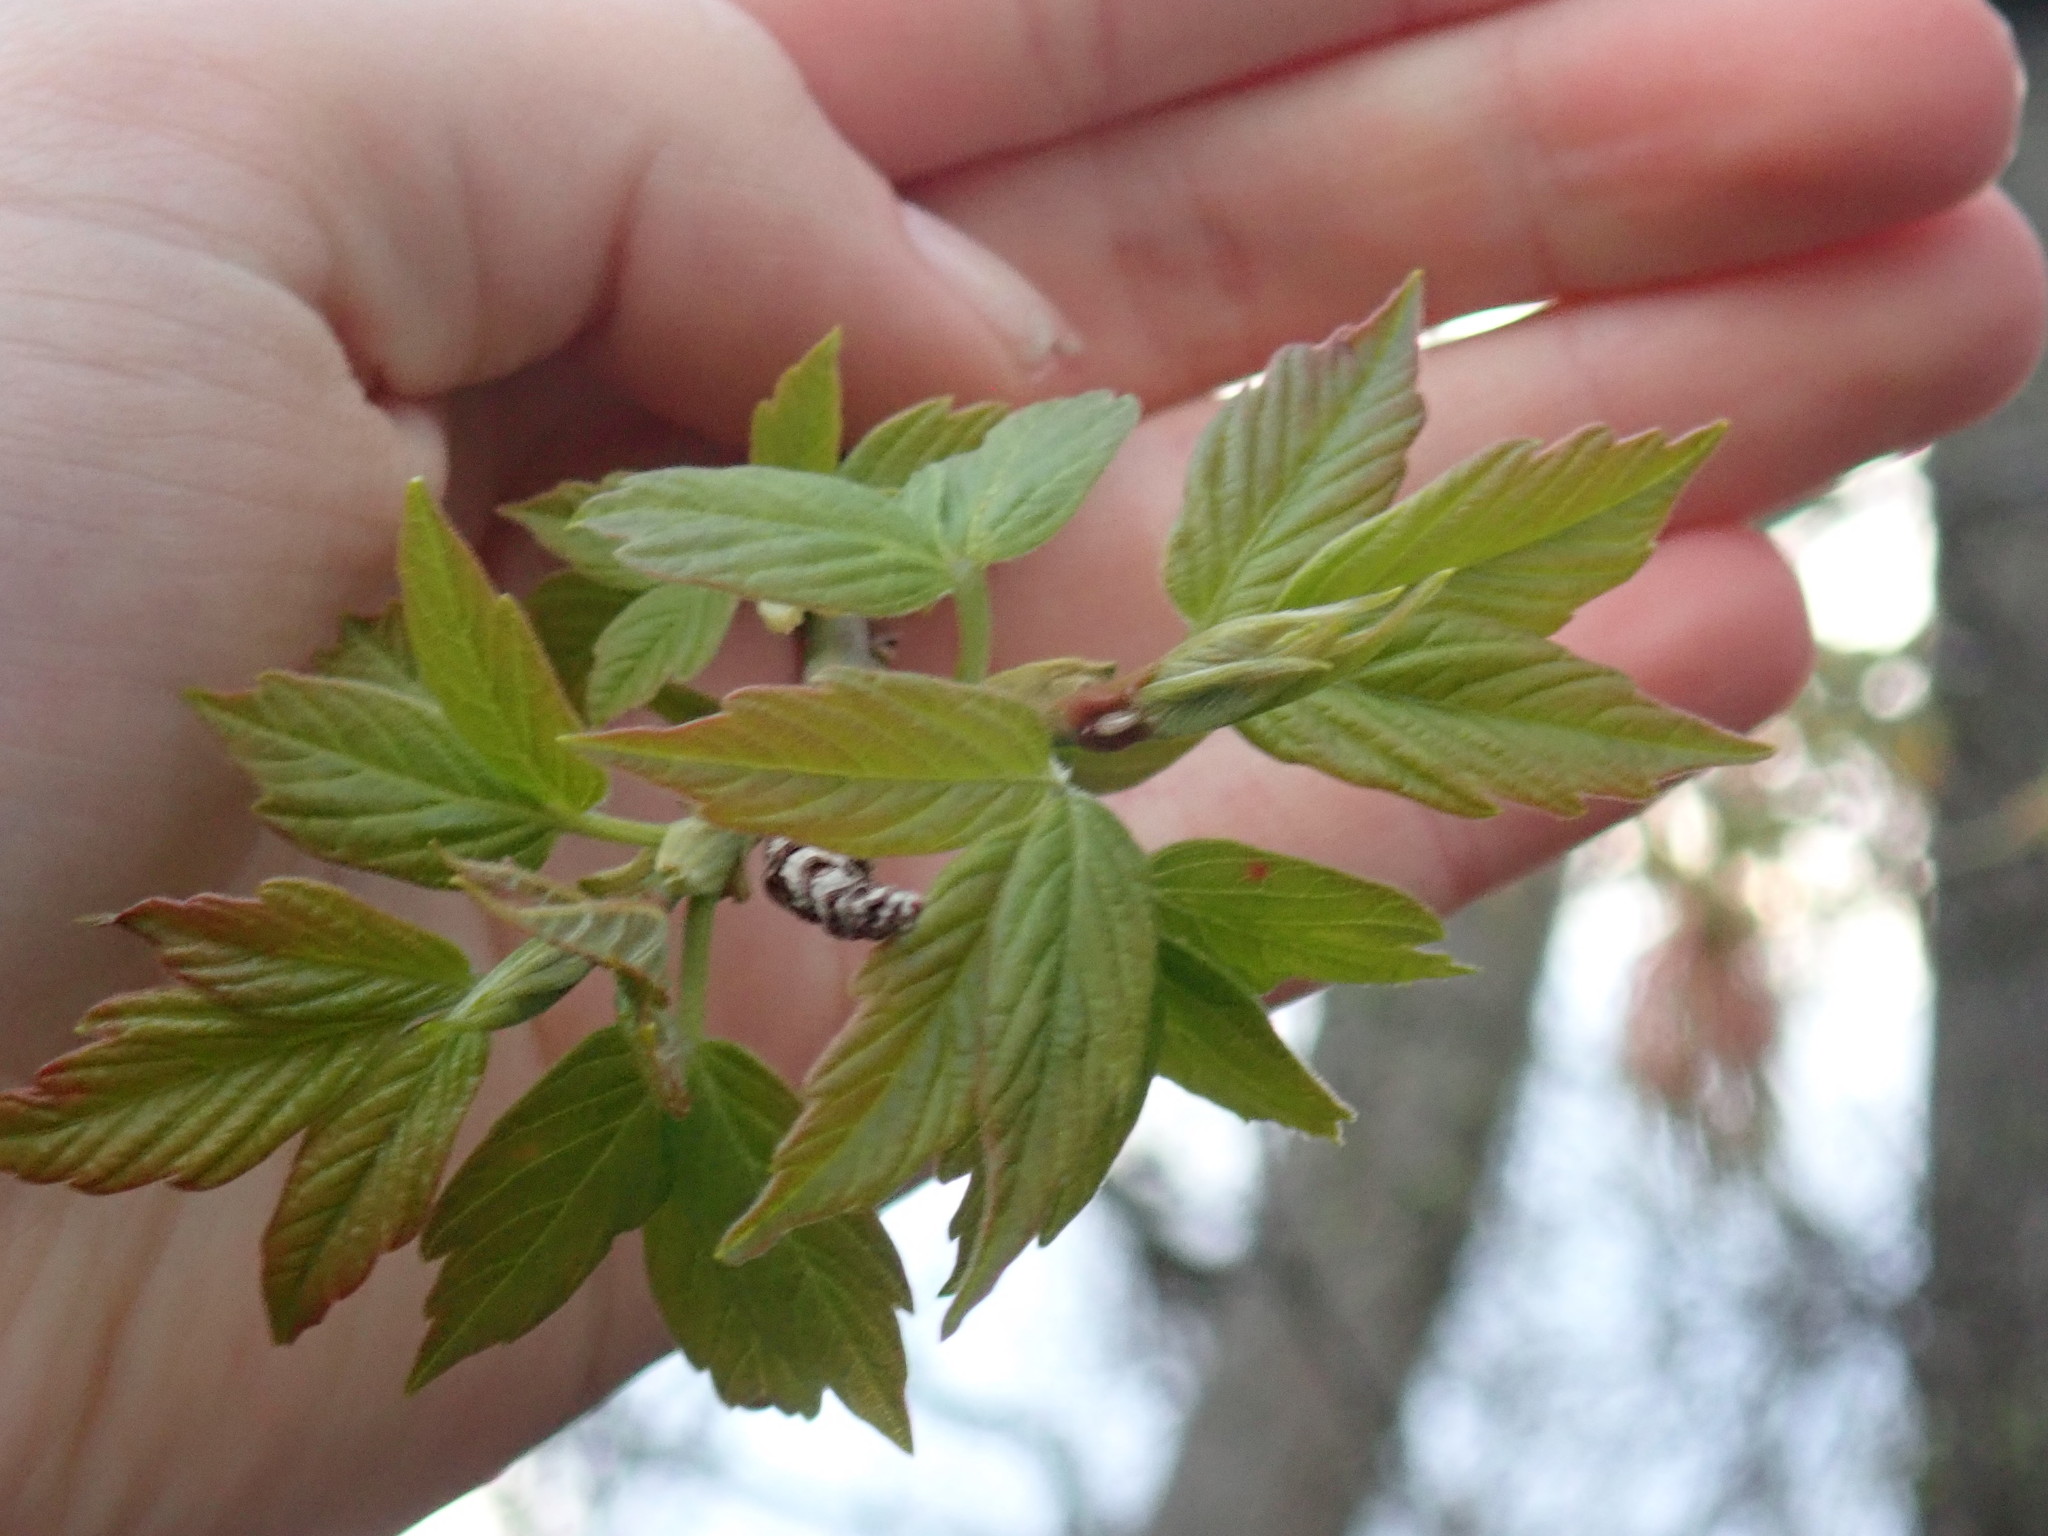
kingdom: Plantae
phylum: Tracheophyta
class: Magnoliopsida
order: Sapindales
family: Sapindaceae
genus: Acer
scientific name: Acer negundo
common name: Ashleaf maple
